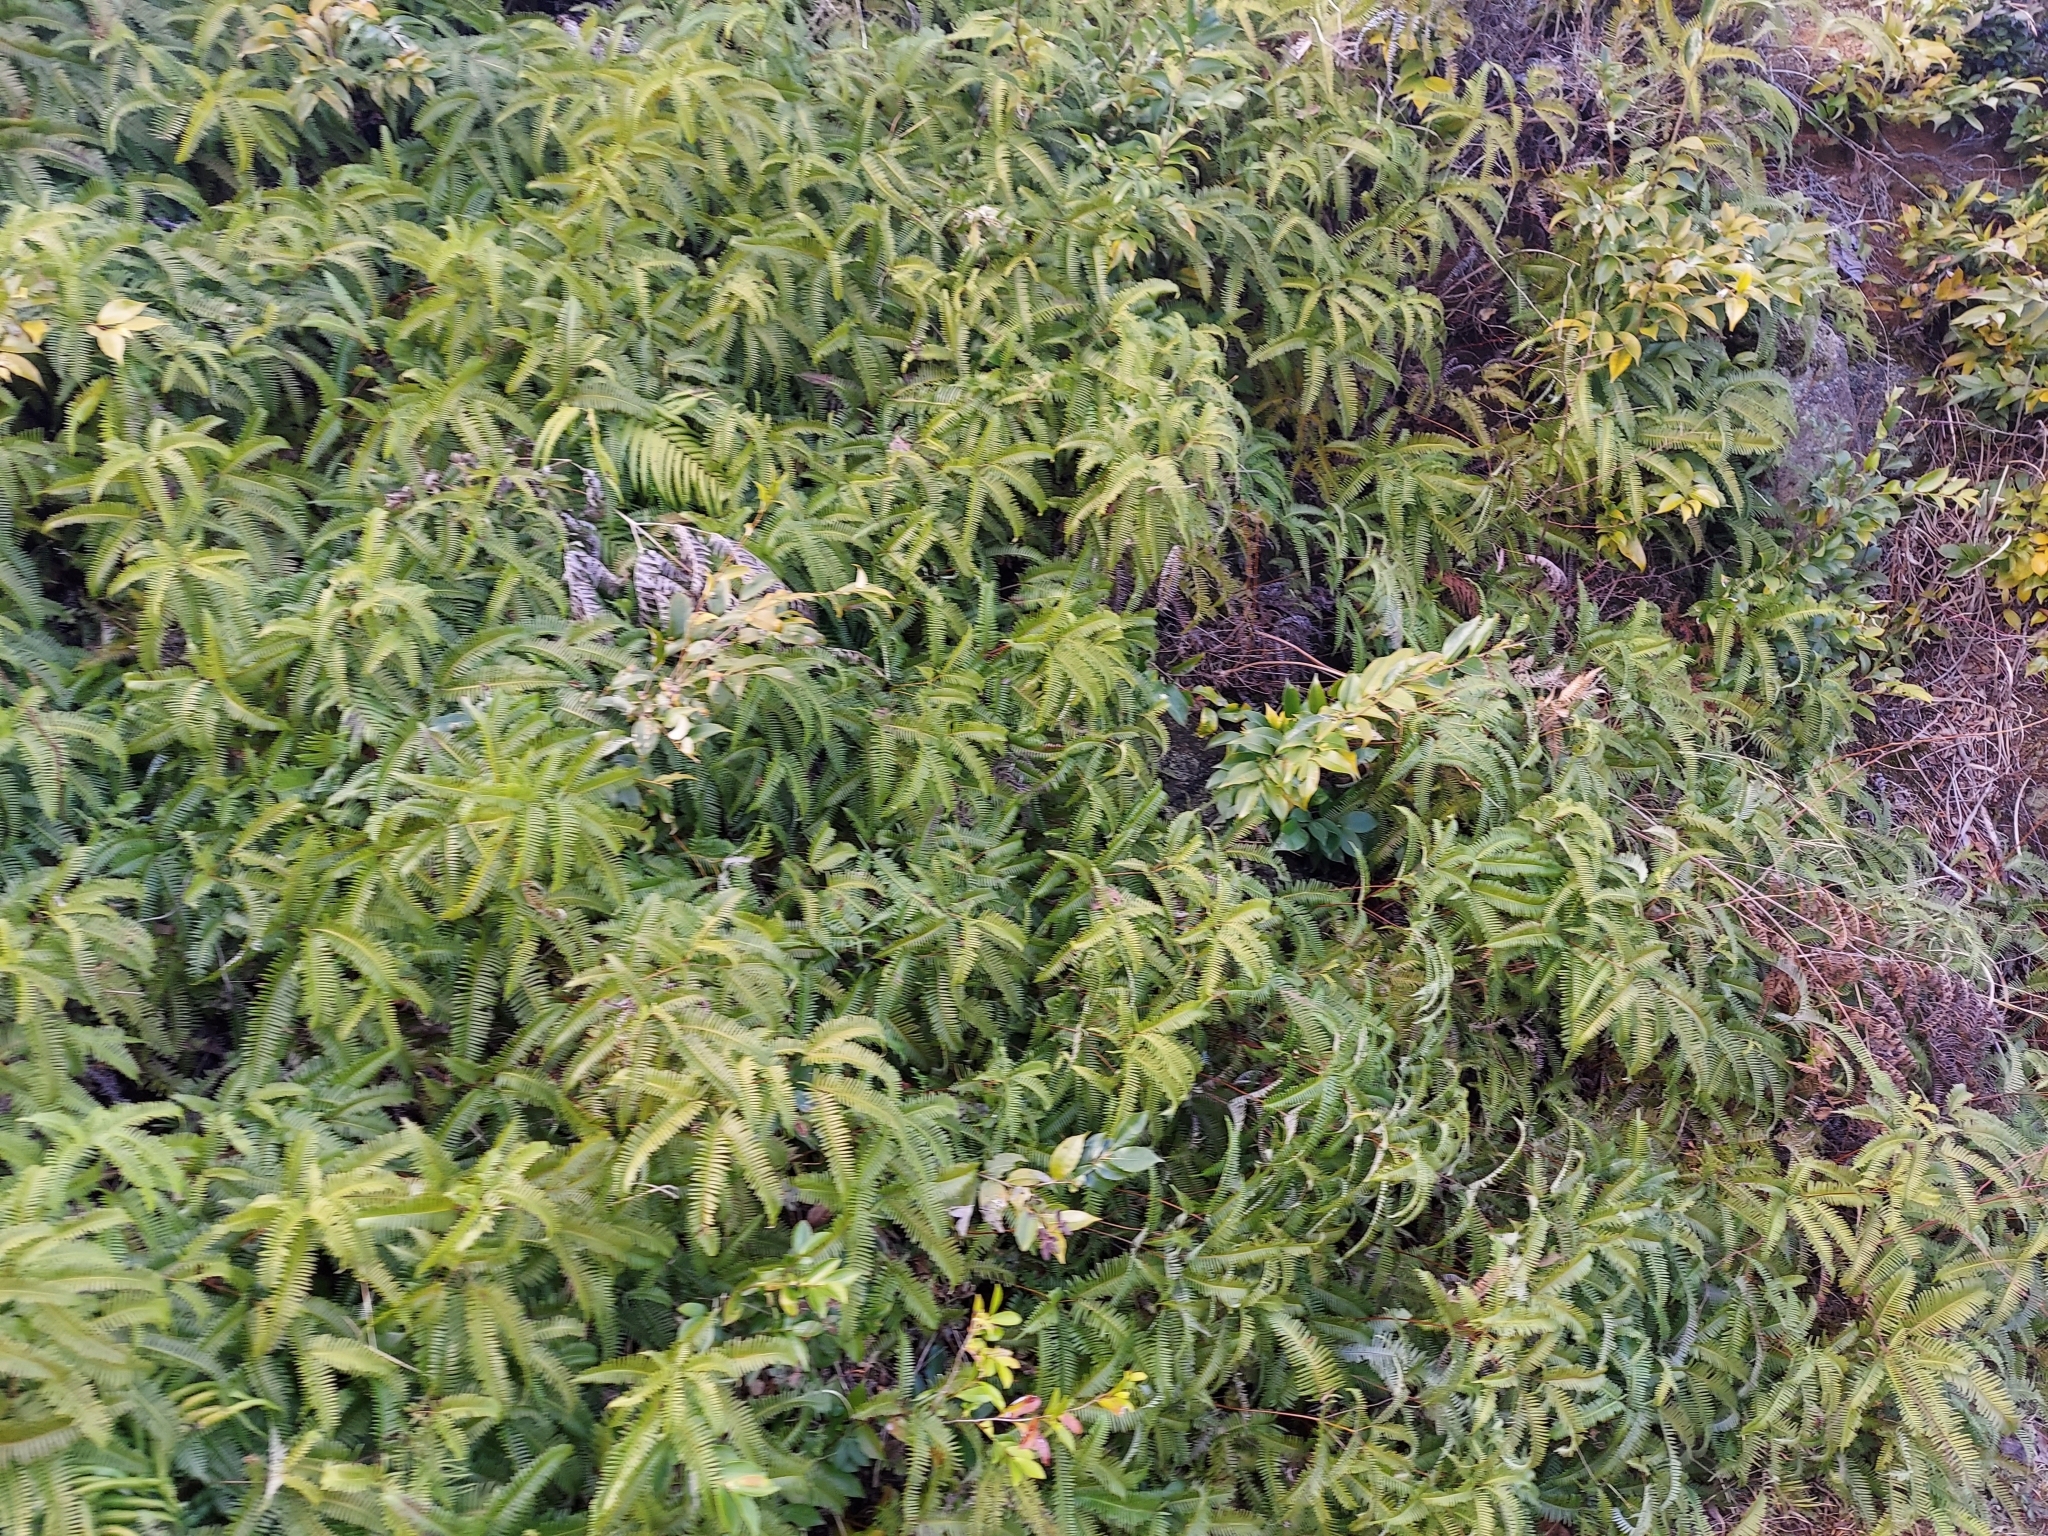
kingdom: Plantae
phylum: Tracheophyta
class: Polypodiopsida
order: Gleicheniales
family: Gleicheniaceae
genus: Dicranopteris
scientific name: Dicranopteris linearis
